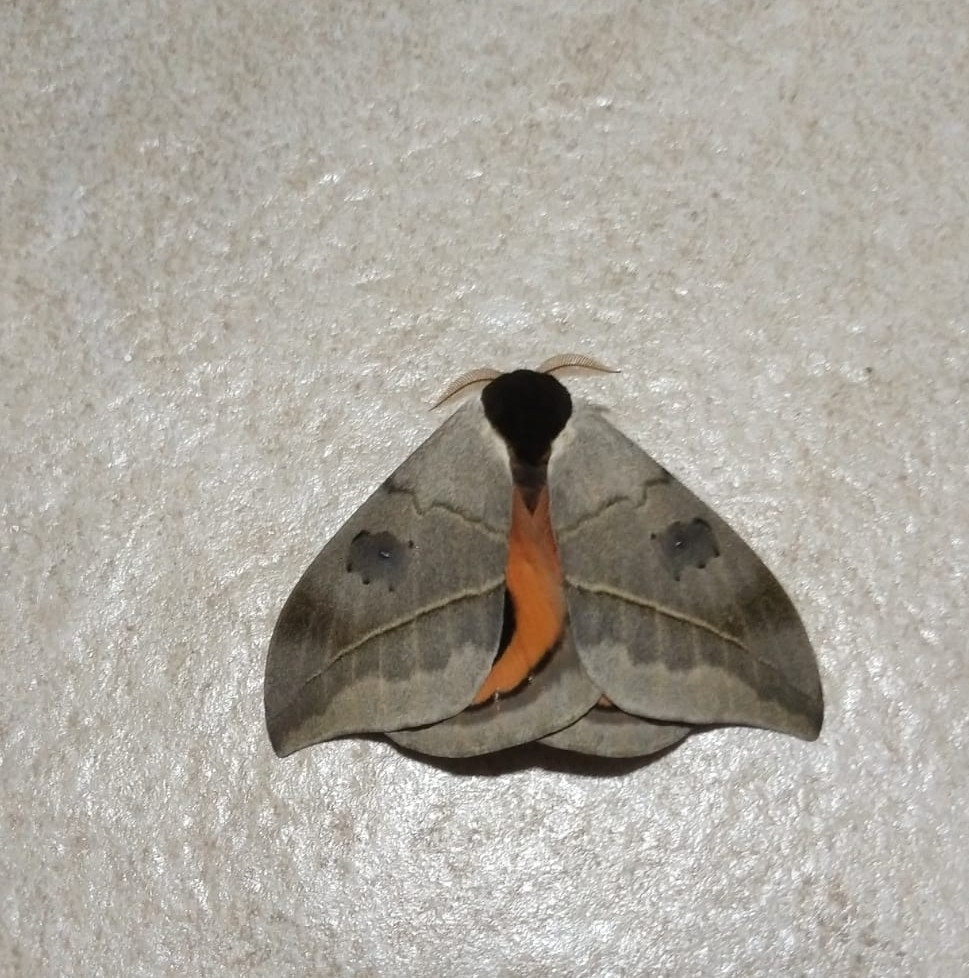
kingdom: Animalia
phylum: Arthropoda
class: Insecta
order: Lepidoptera
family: Saturniidae
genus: Automeris
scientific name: Automeris coresus
